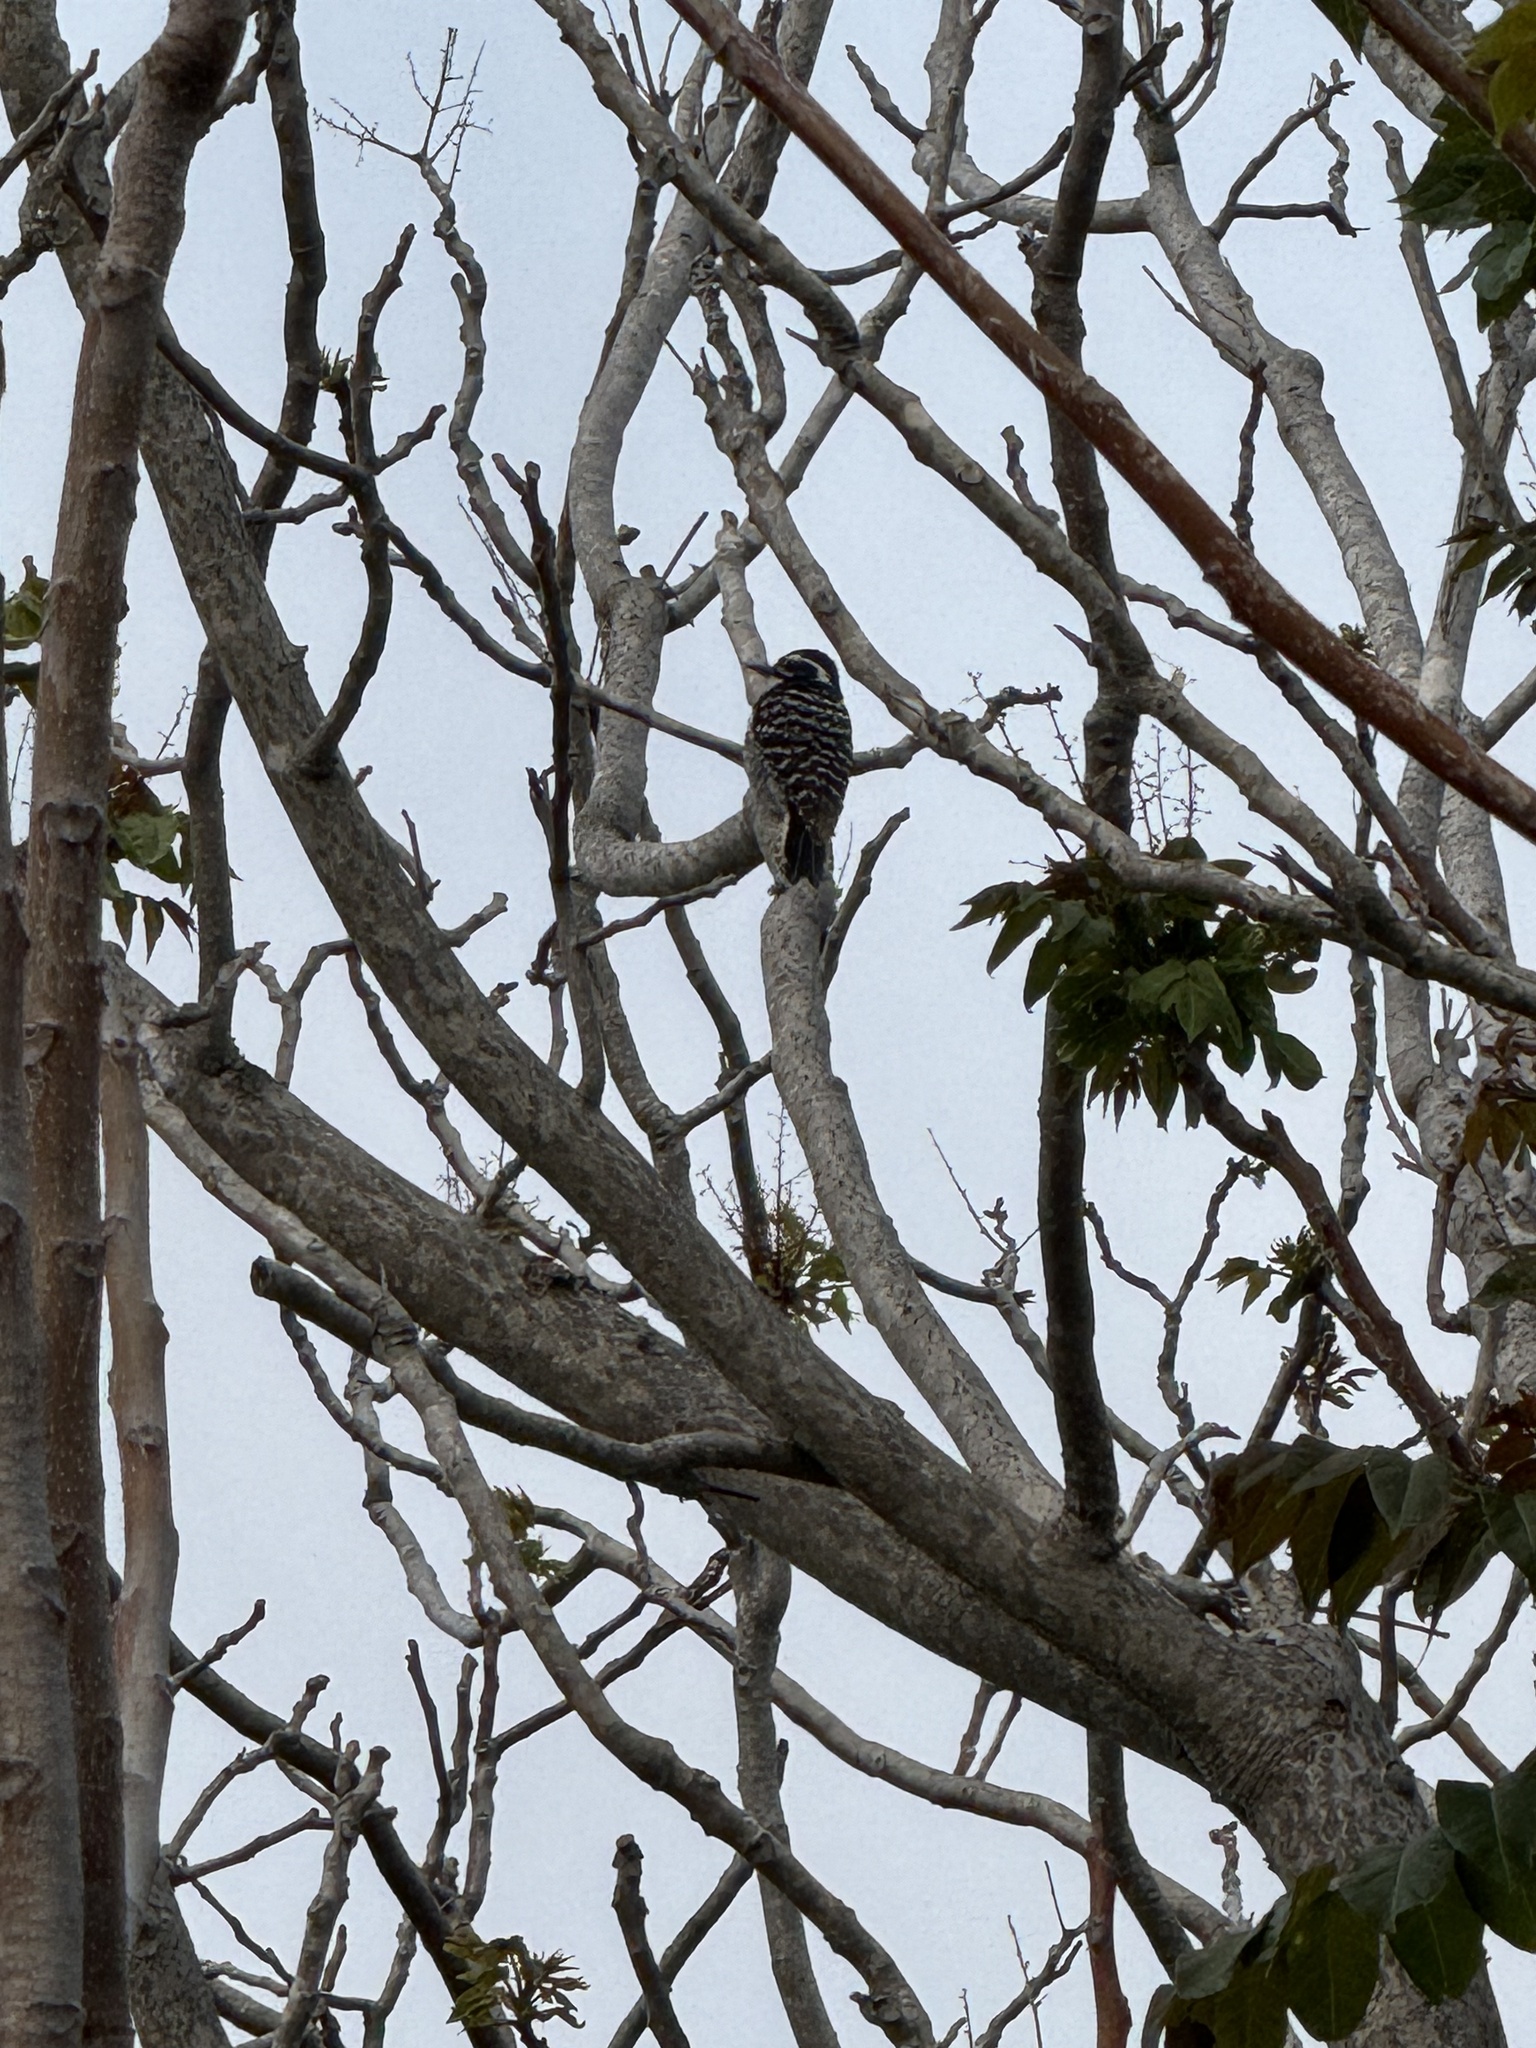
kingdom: Animalia
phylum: Chordata
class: Aves
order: Piciformes
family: Picidae
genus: Dryobates
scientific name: Dryobates nuttallii
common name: Nuttall's woodpecker
